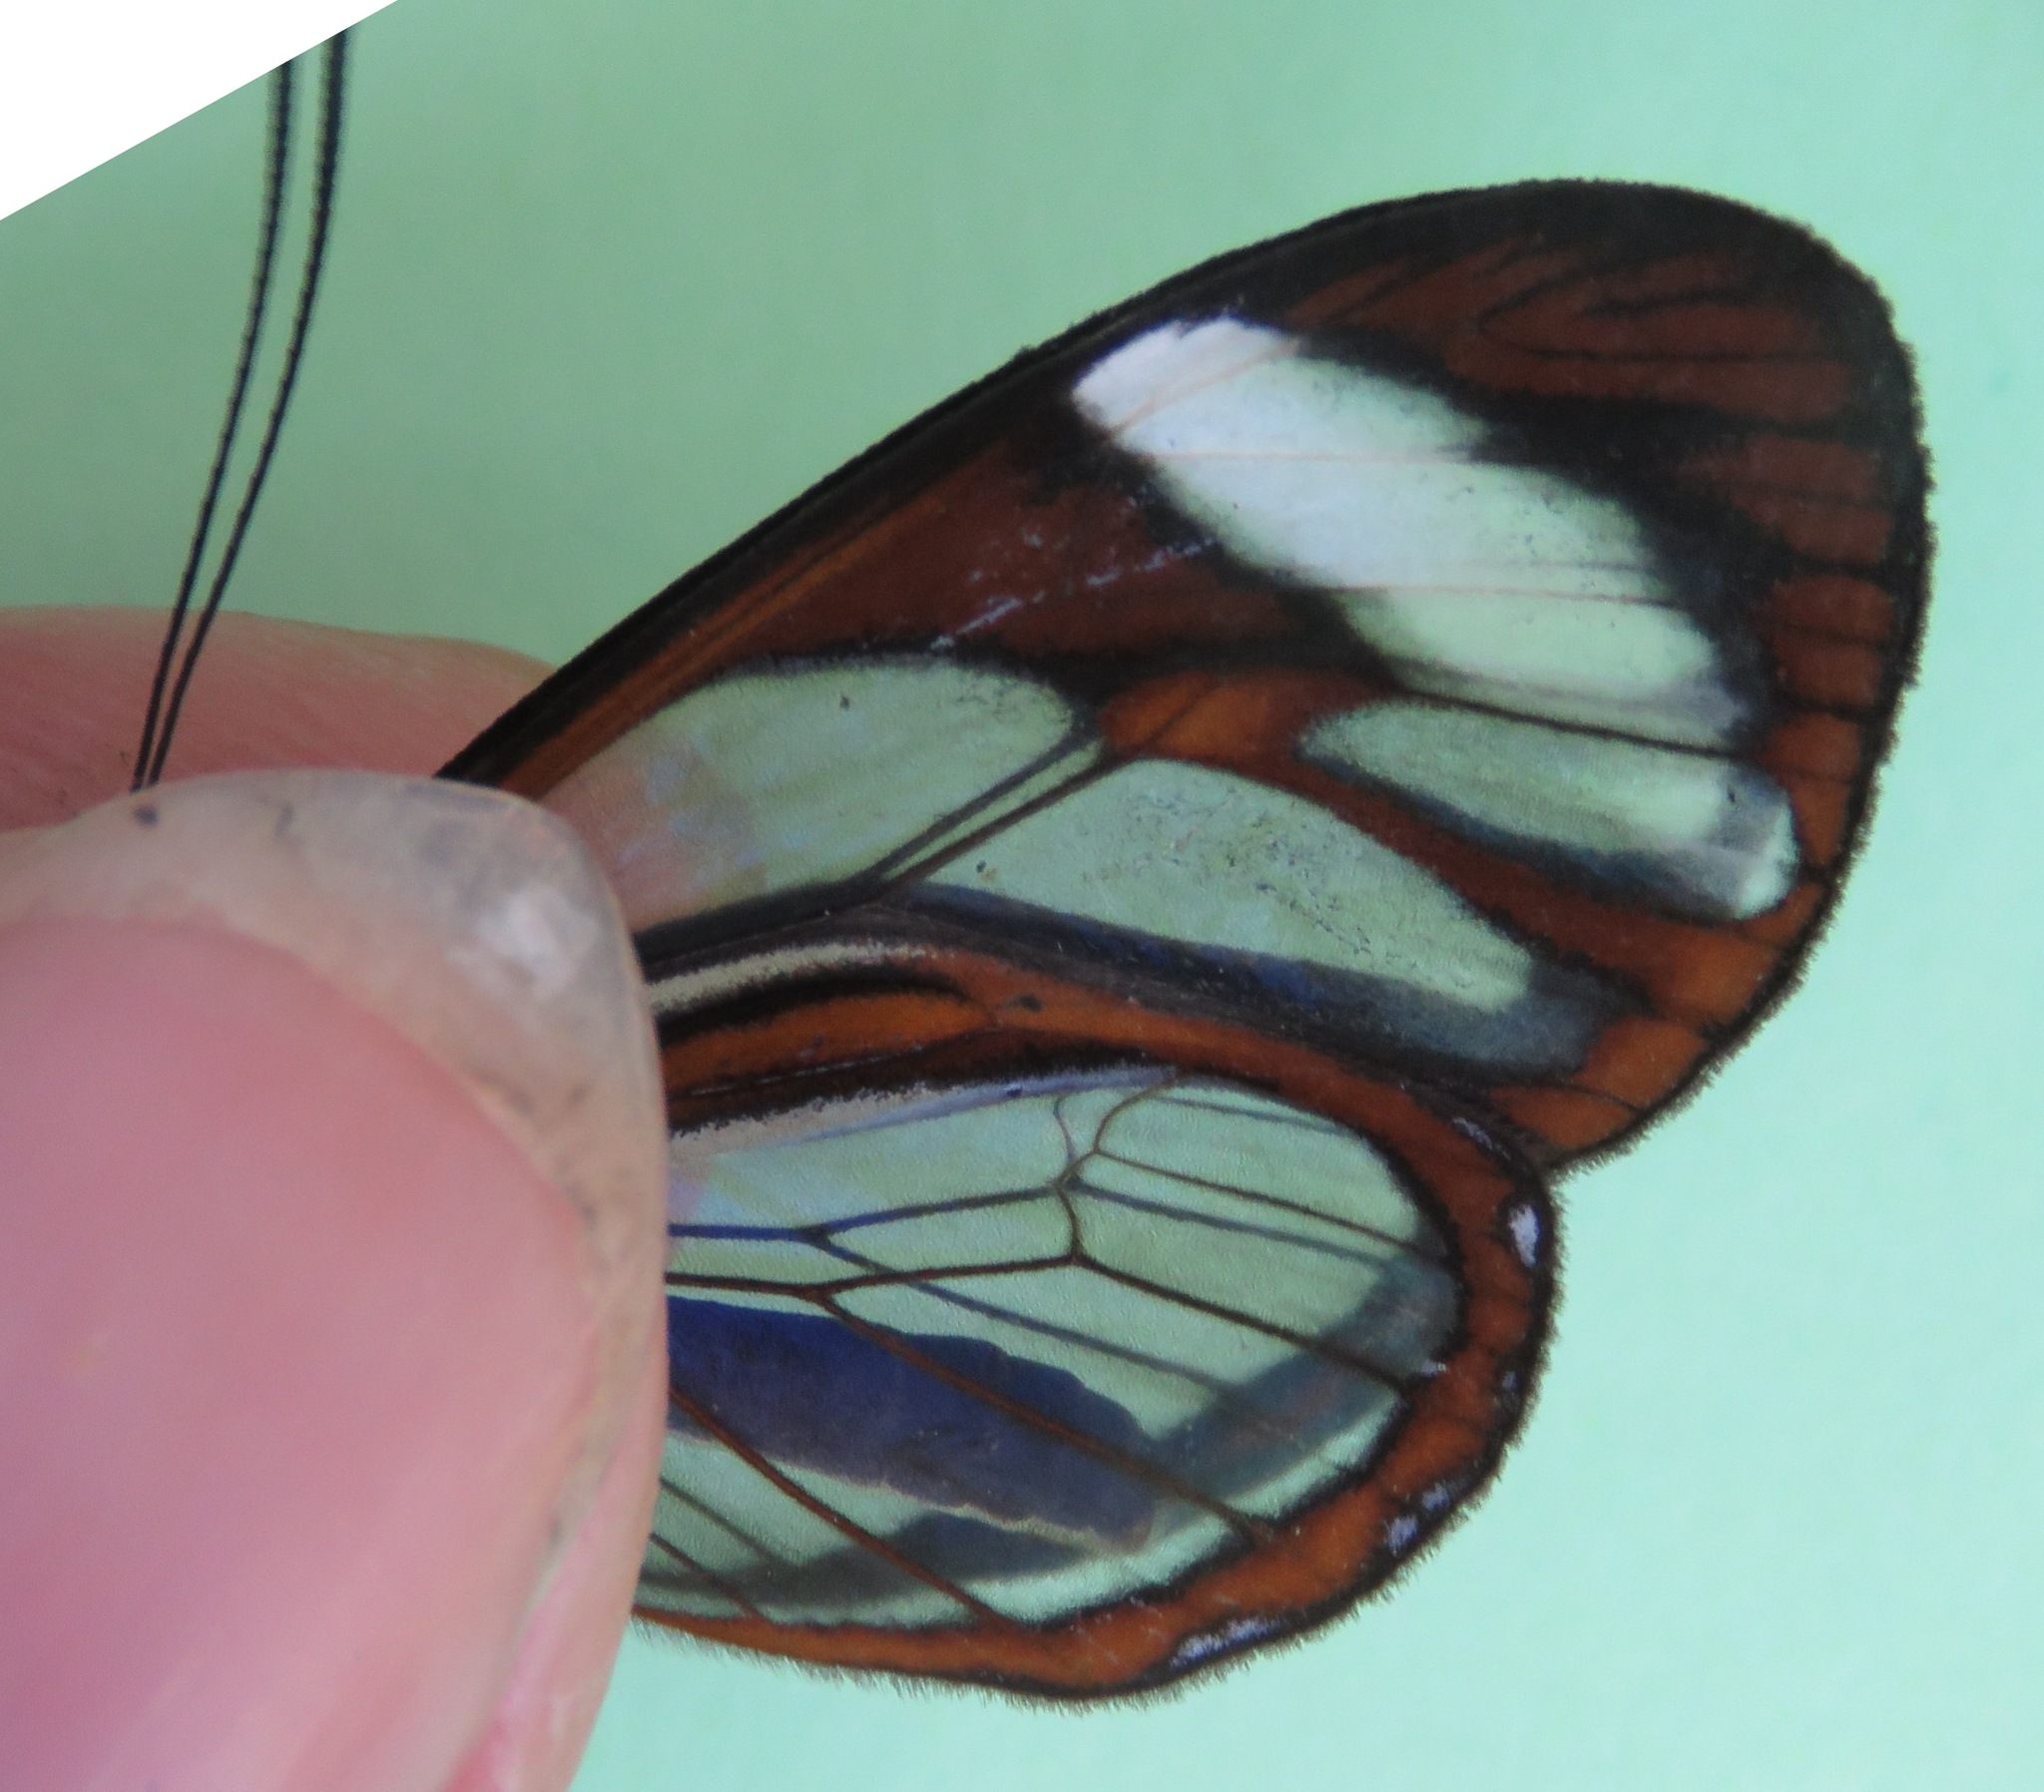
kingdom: Animalia
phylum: Arthropoda
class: Insecta
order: Lepidoptera
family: Nymphalidae
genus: Ithomia
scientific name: Ithomia patilla
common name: Patilla clearwing
